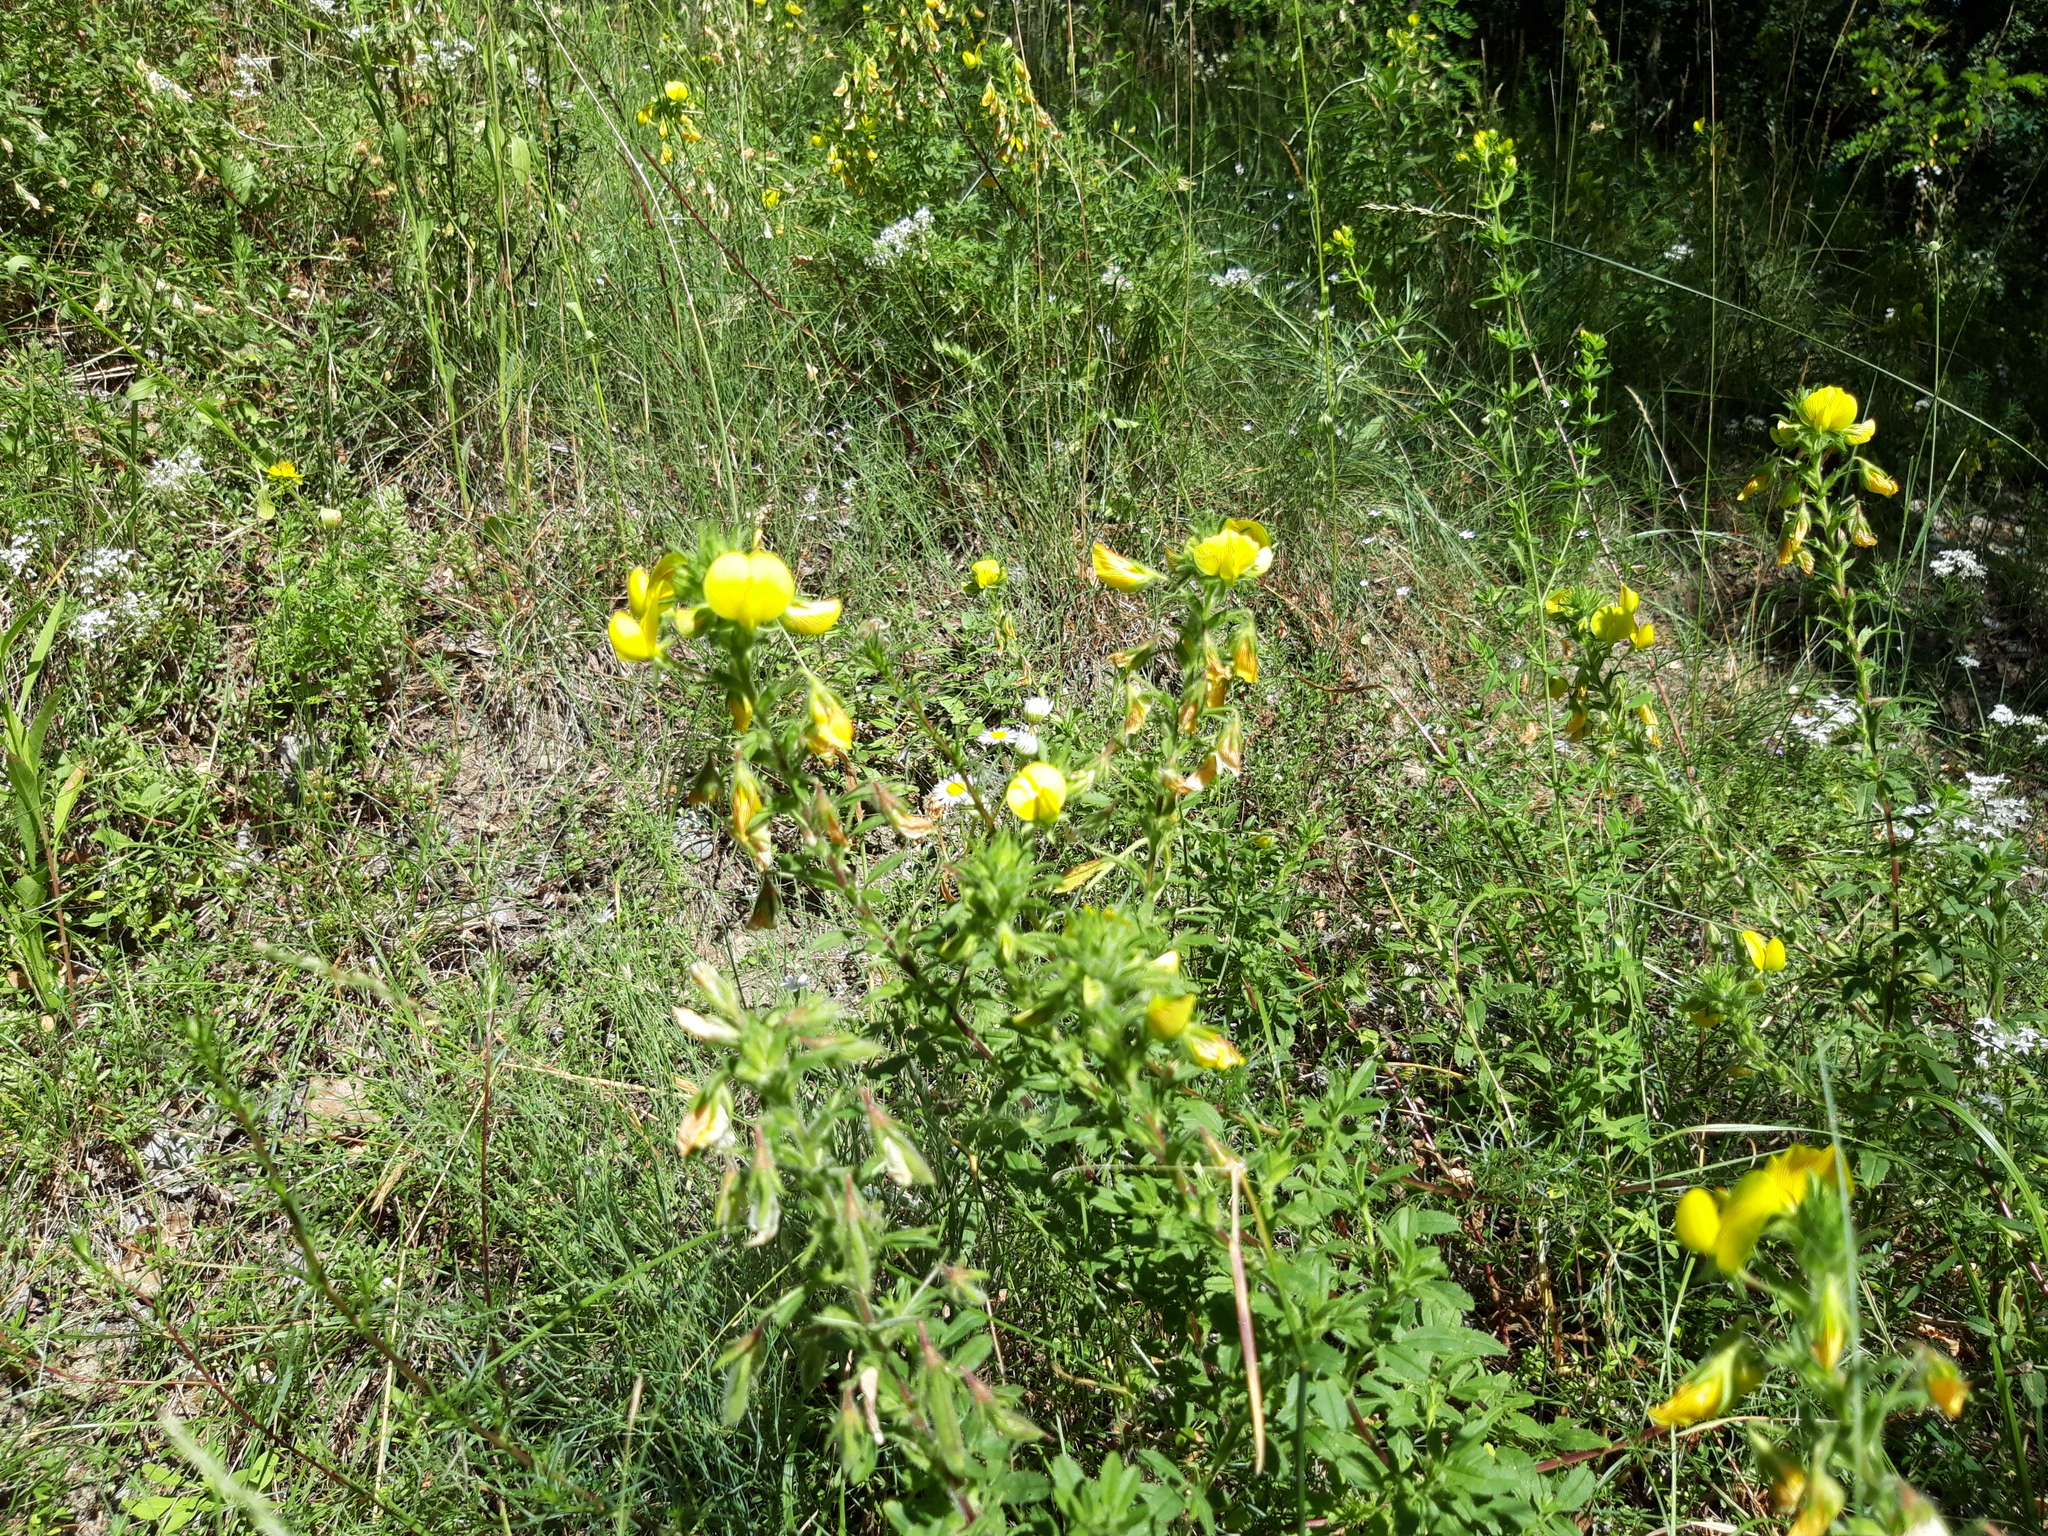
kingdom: Plantae
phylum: Tracheophyta
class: Magnoliopsida
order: Fabales
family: Fabaceae
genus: Ononis
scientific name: Ononis natrix
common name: Yellow restharrow
